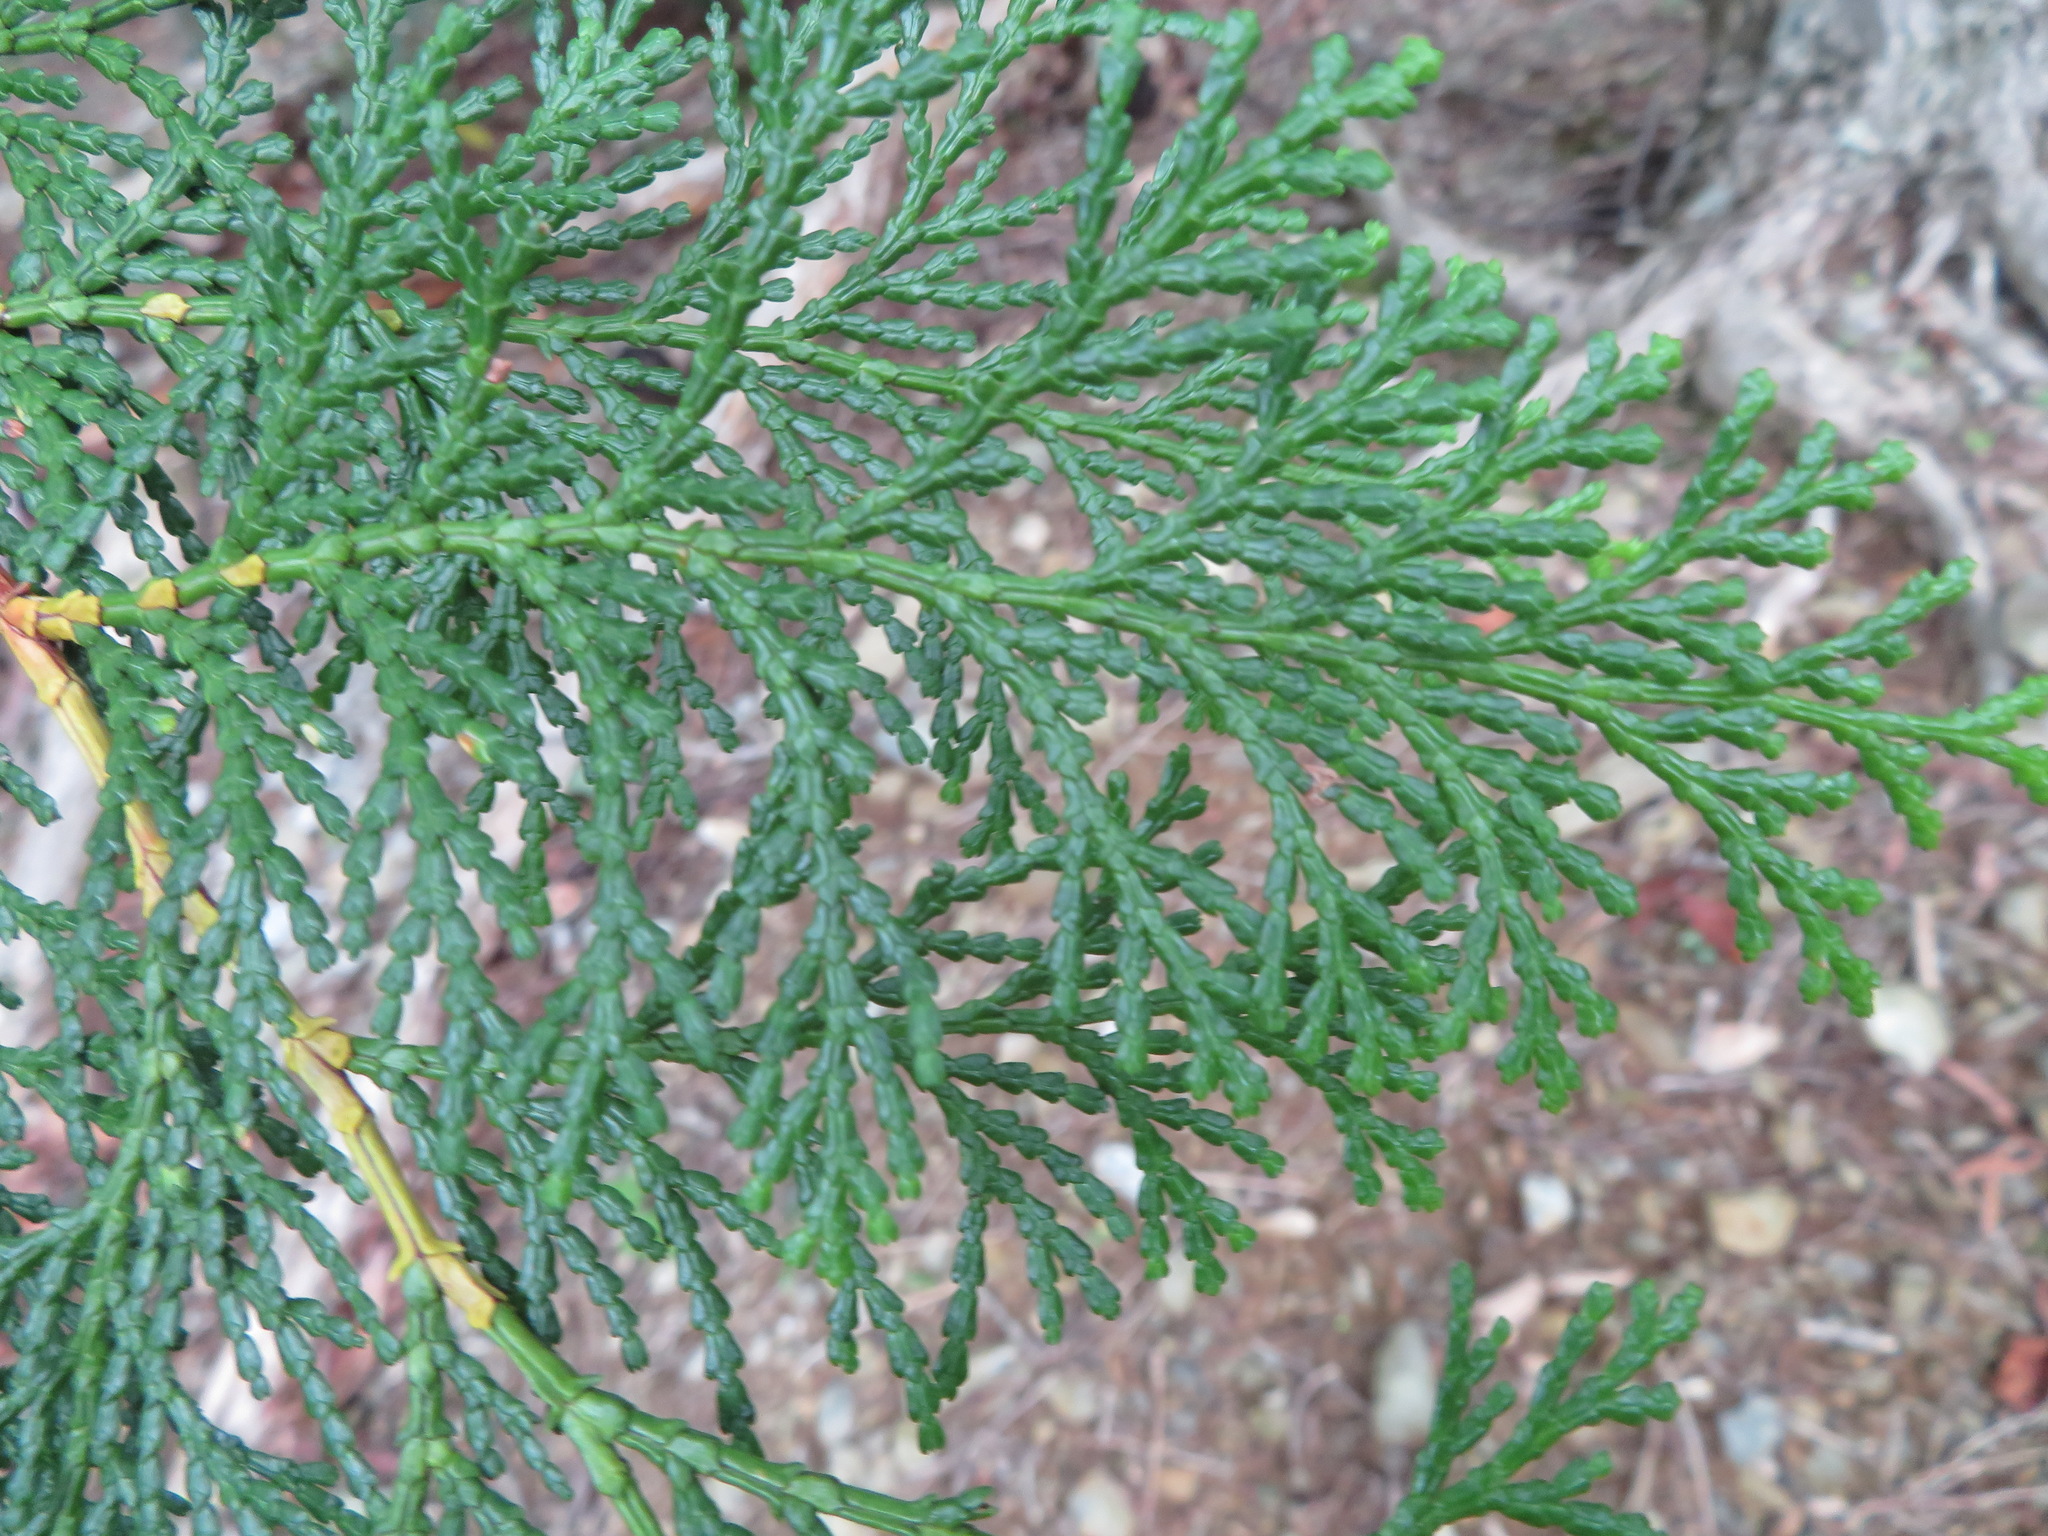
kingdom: Plantae
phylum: Tracheophyta
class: Pinopsida
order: Pinales
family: Cupressaceae
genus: Chamaecyparis
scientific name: Chamaecyparis obtusa
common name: Hinoki false cypress
